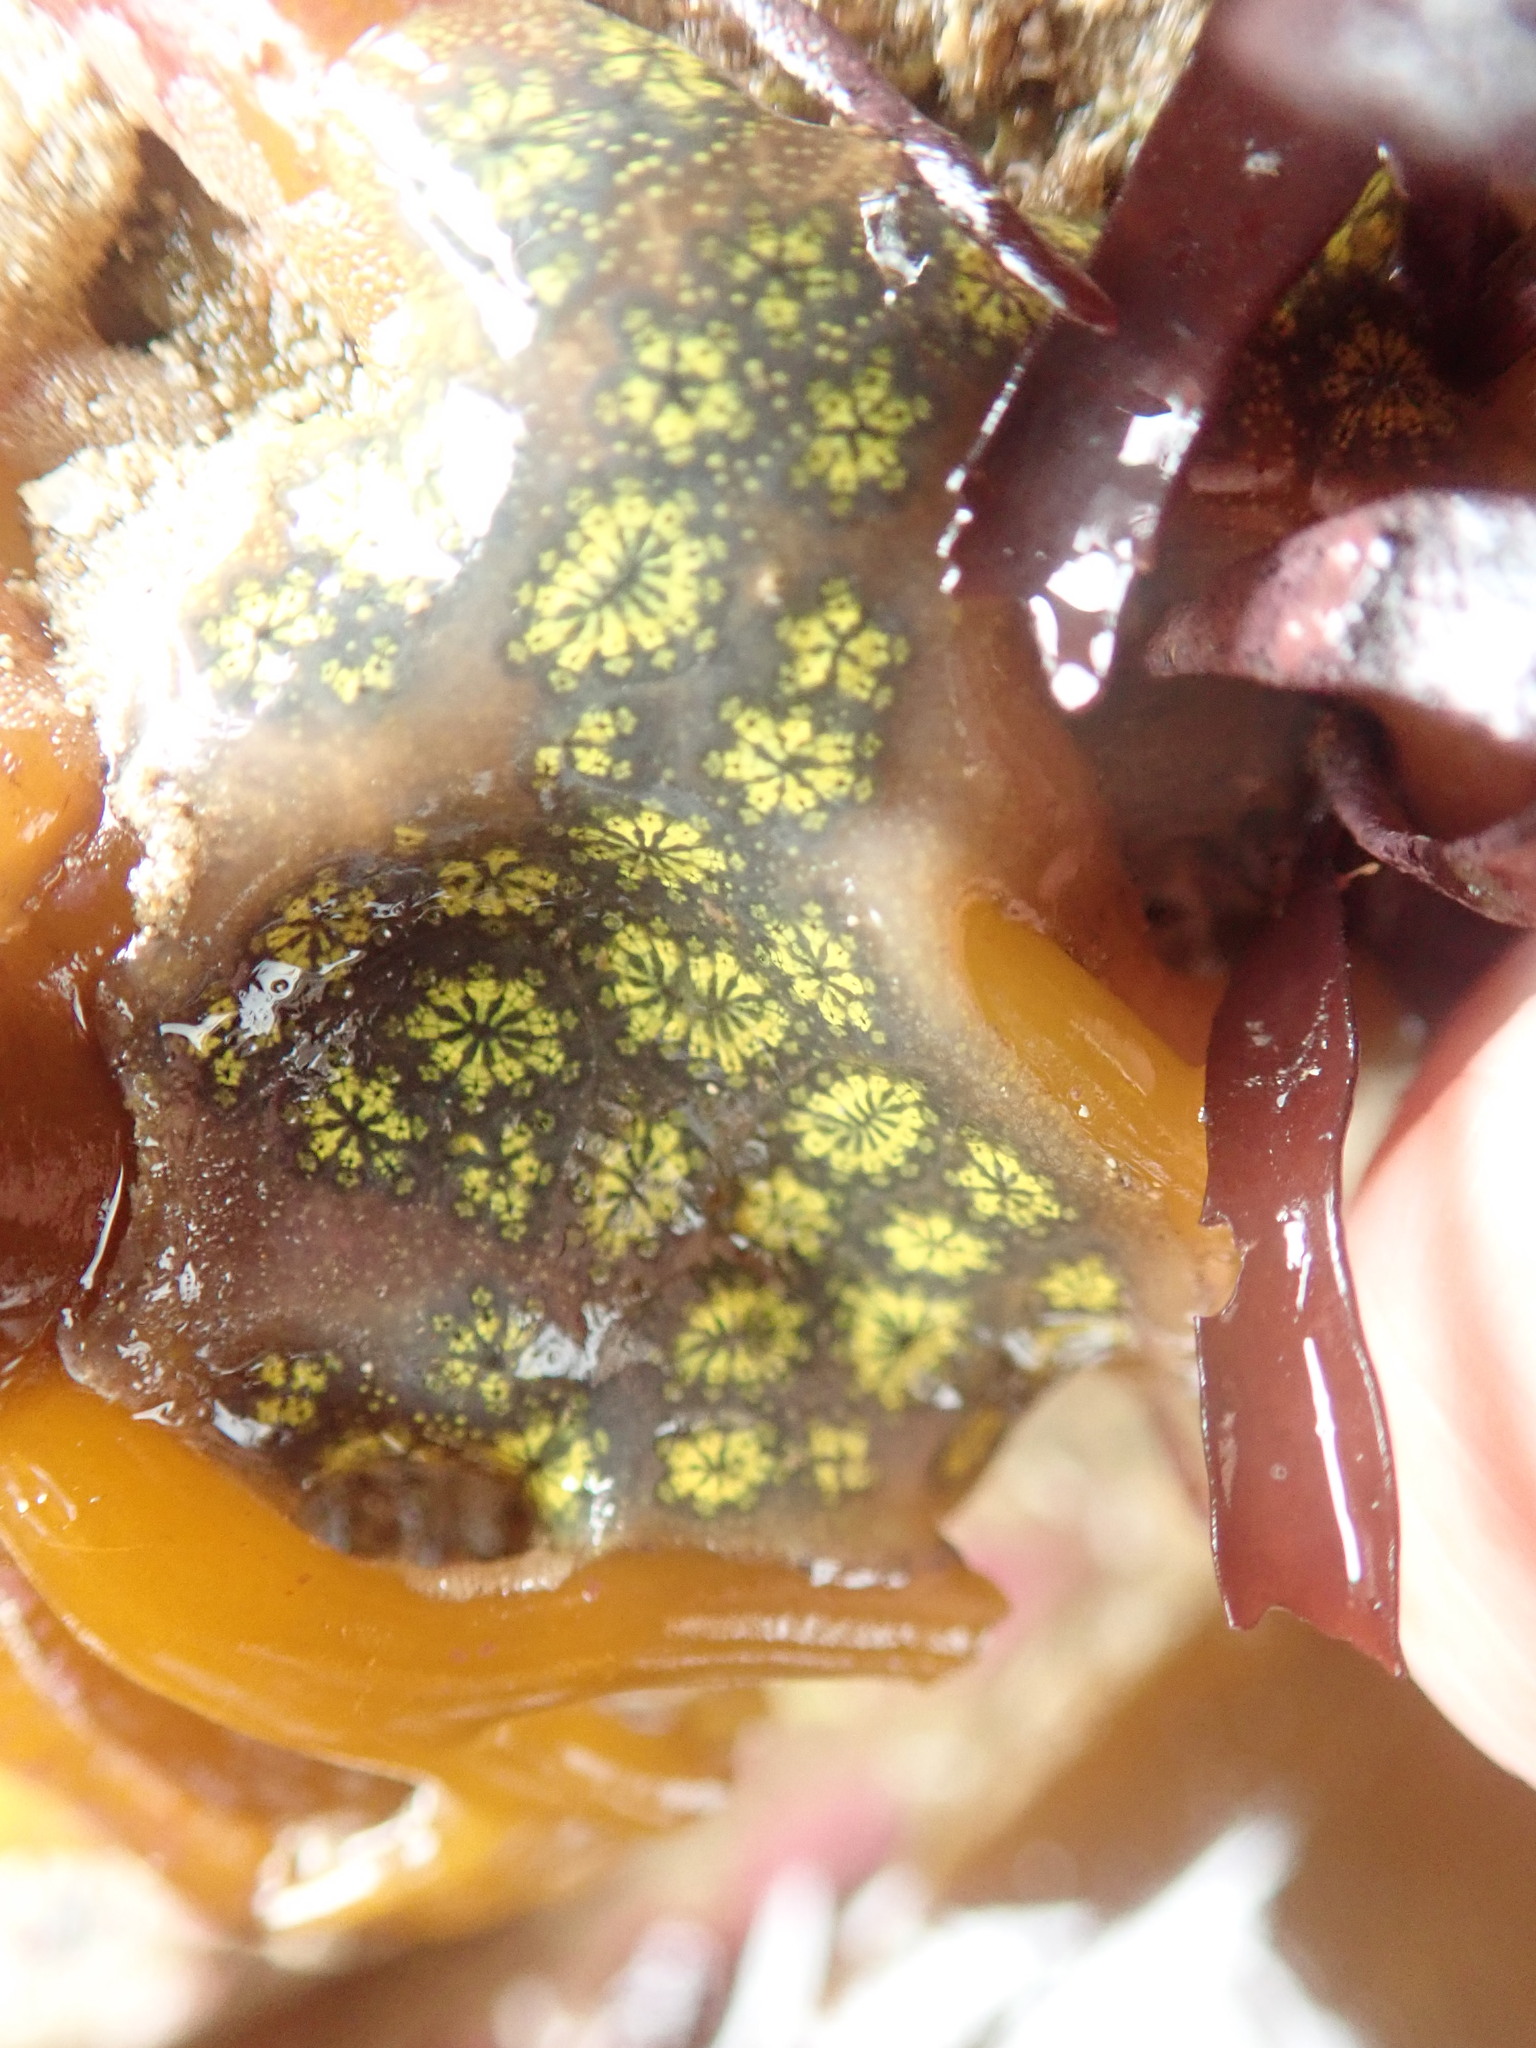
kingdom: Animalia
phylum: Chordata
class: Ascidiacea
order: Stolidobranchia
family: Styelidae
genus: Botryllus
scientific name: Botryllus schlosseri
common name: Golden star tunicate
